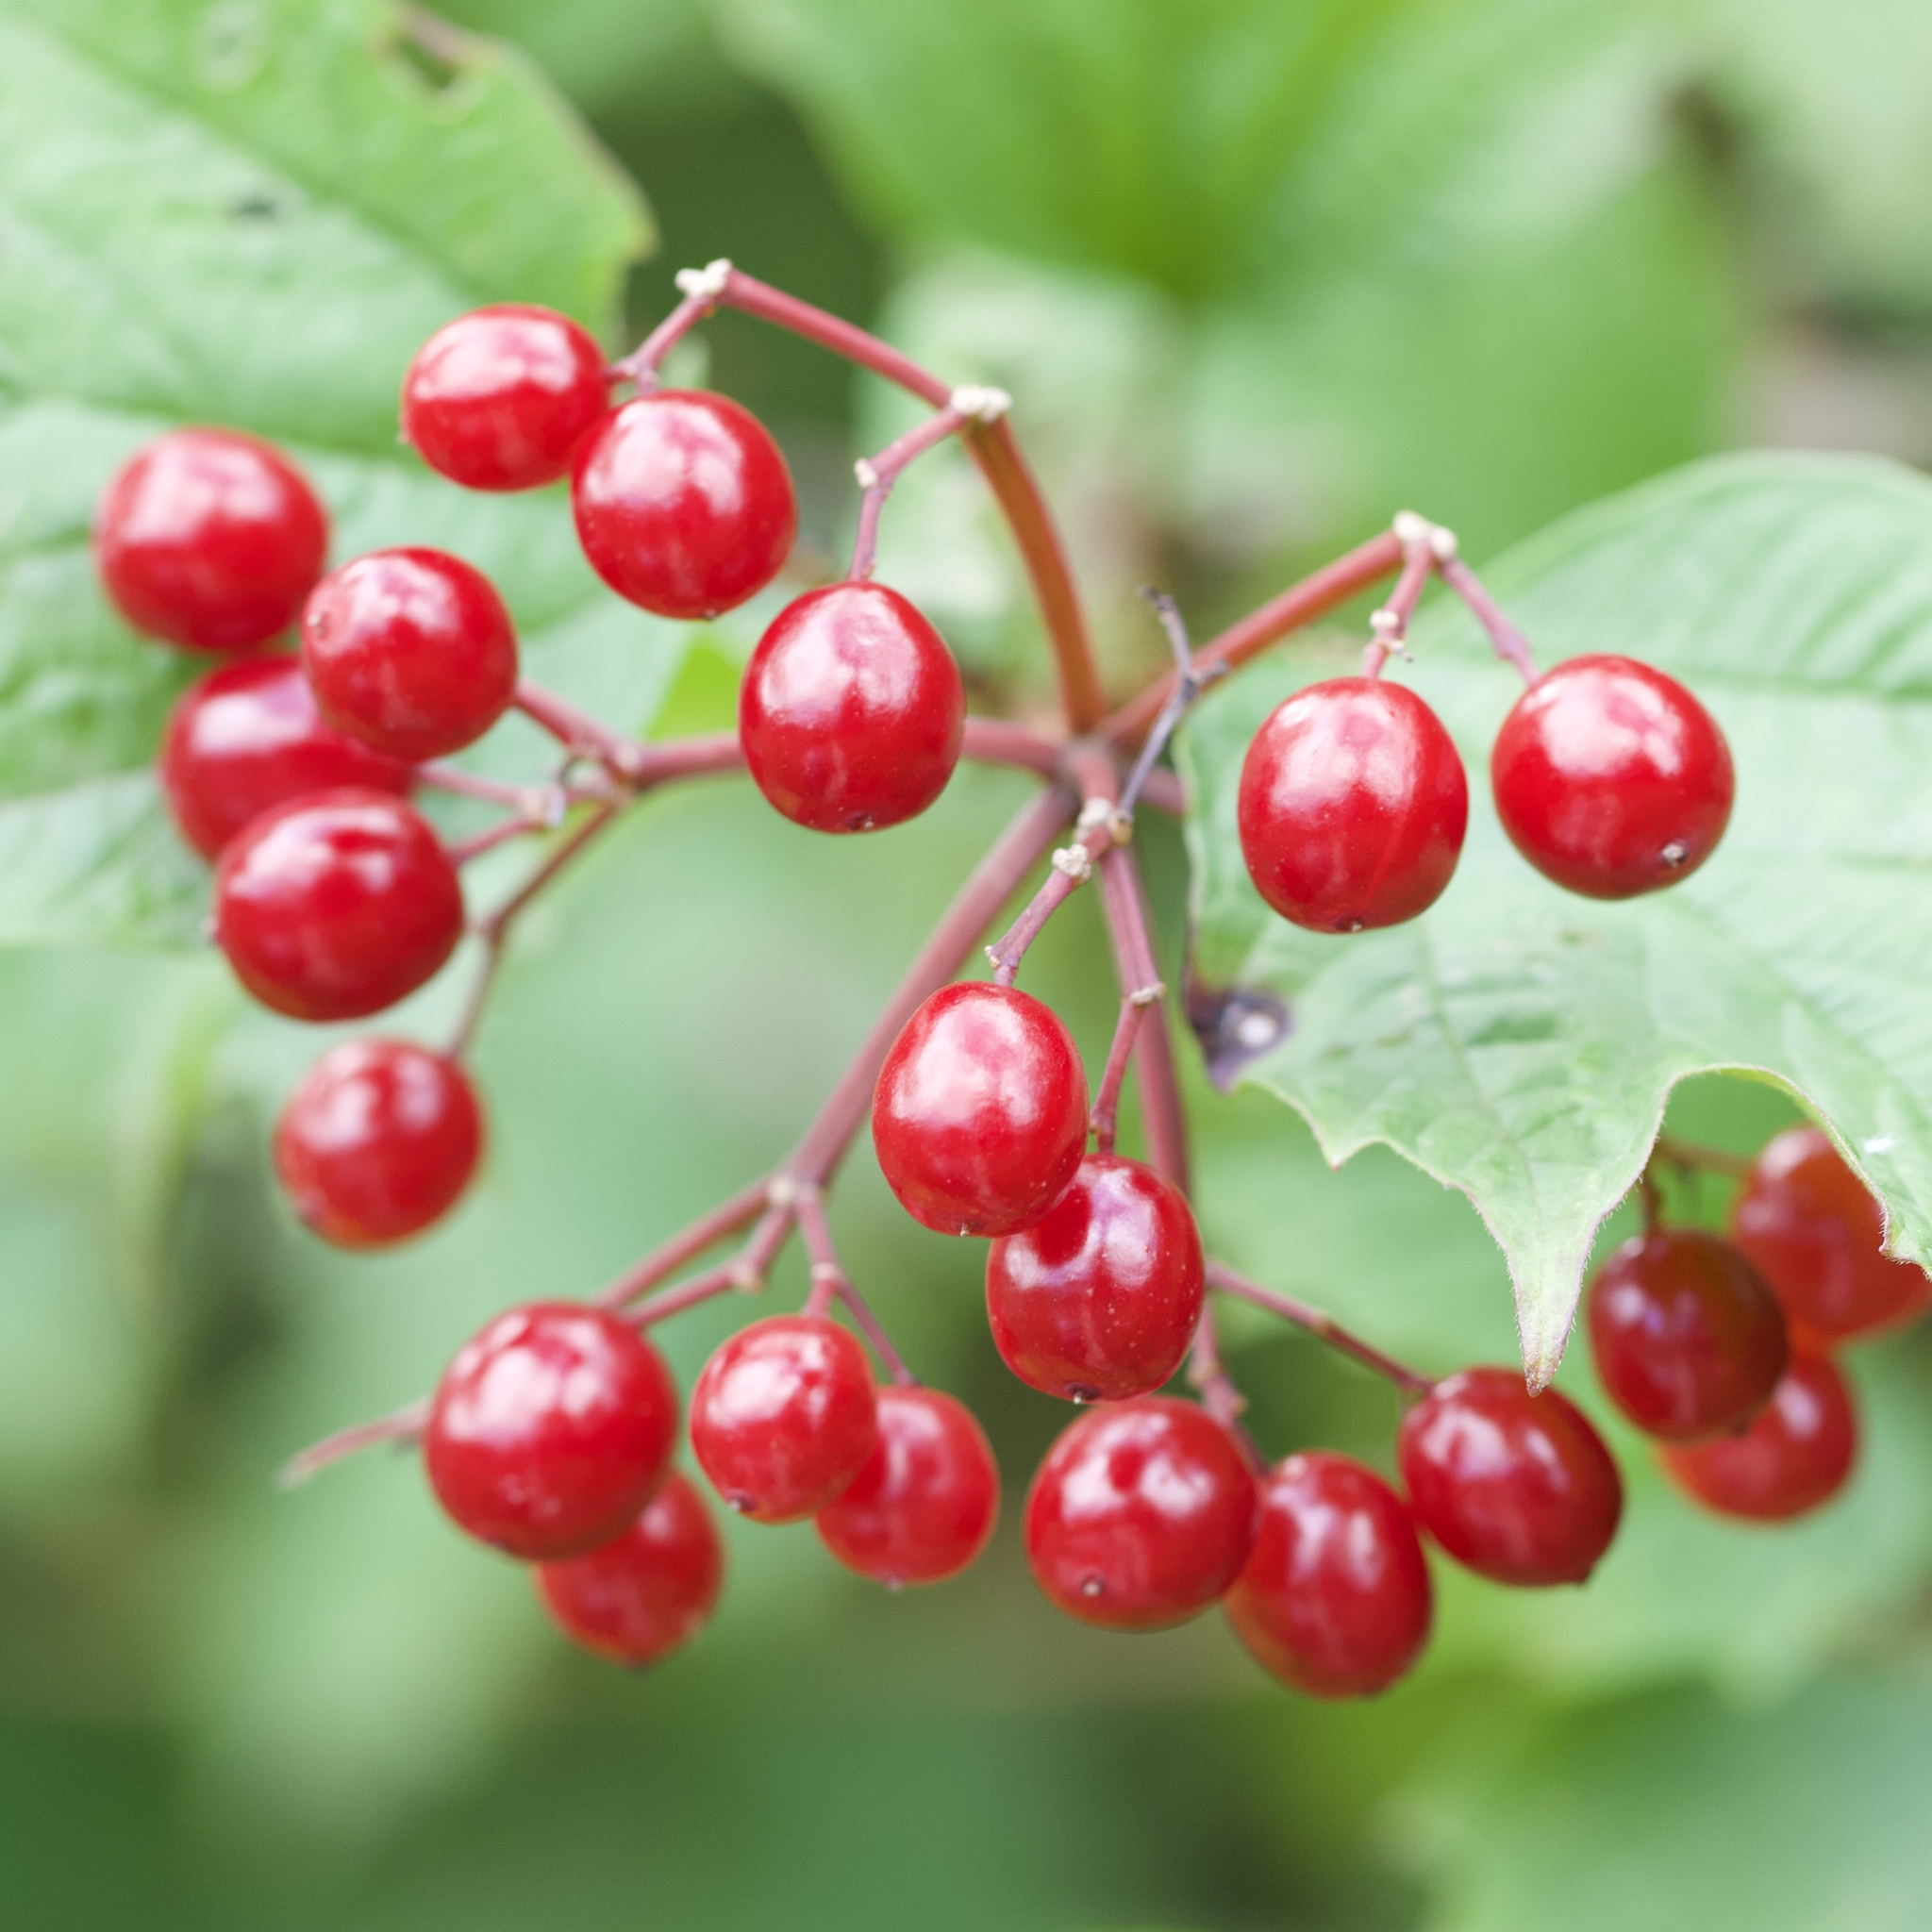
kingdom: Plantae
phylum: Tracheophyta
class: Magnoliopsida
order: Dipsacales
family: Viburnaceae
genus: Viburnum
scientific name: Viburnum opulus
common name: Guelder-rose
